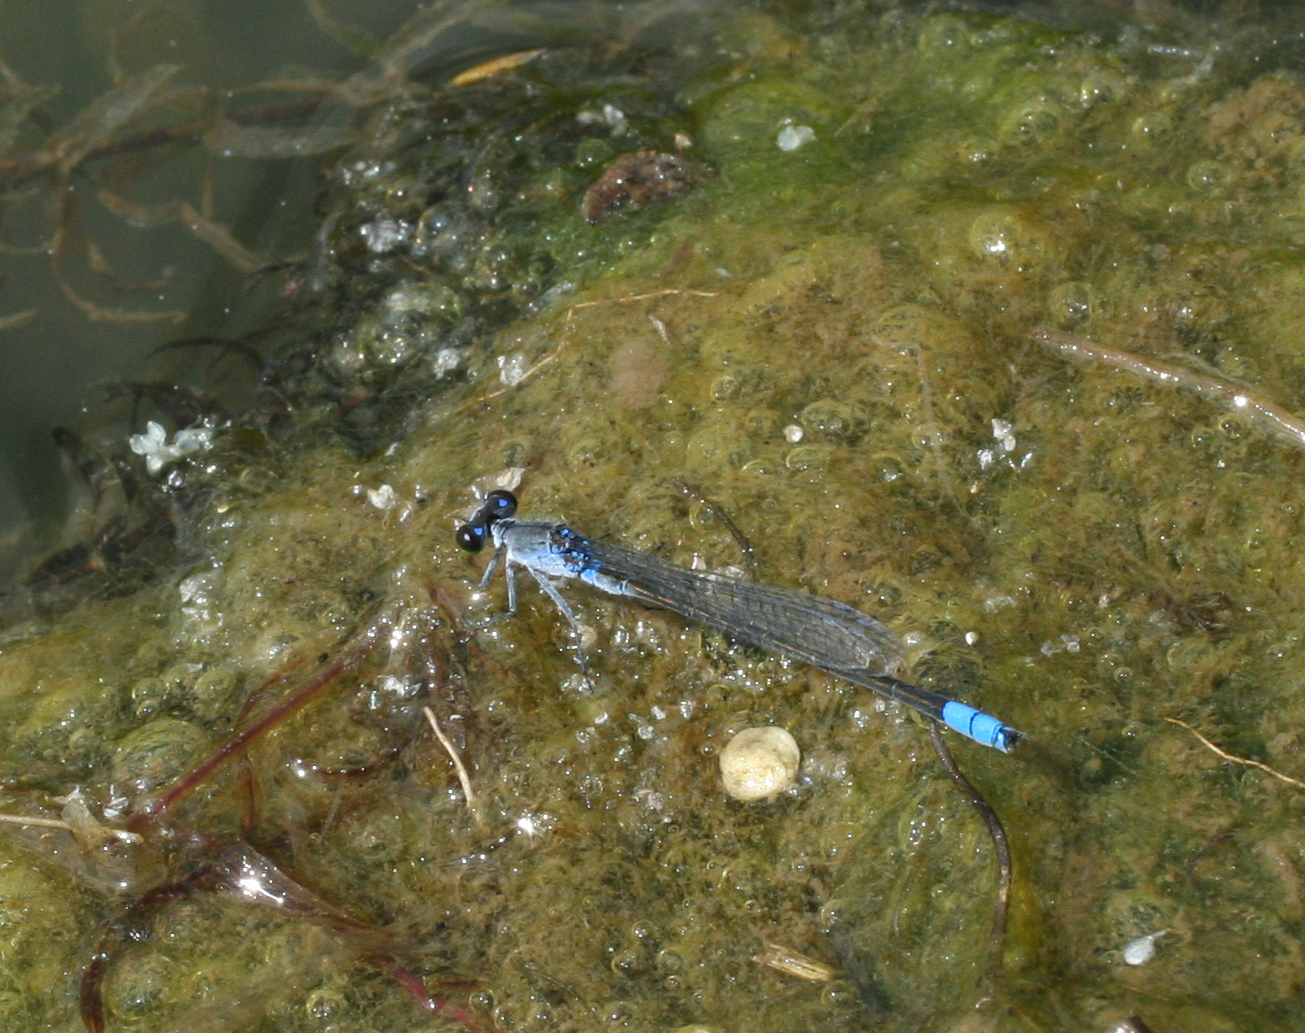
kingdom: Animalia
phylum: Arthropoda
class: Insecta
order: Odonata
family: Coenagrionidae
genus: Paracercion
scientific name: Paracercion calamorum
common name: Dusky lilysquatter
